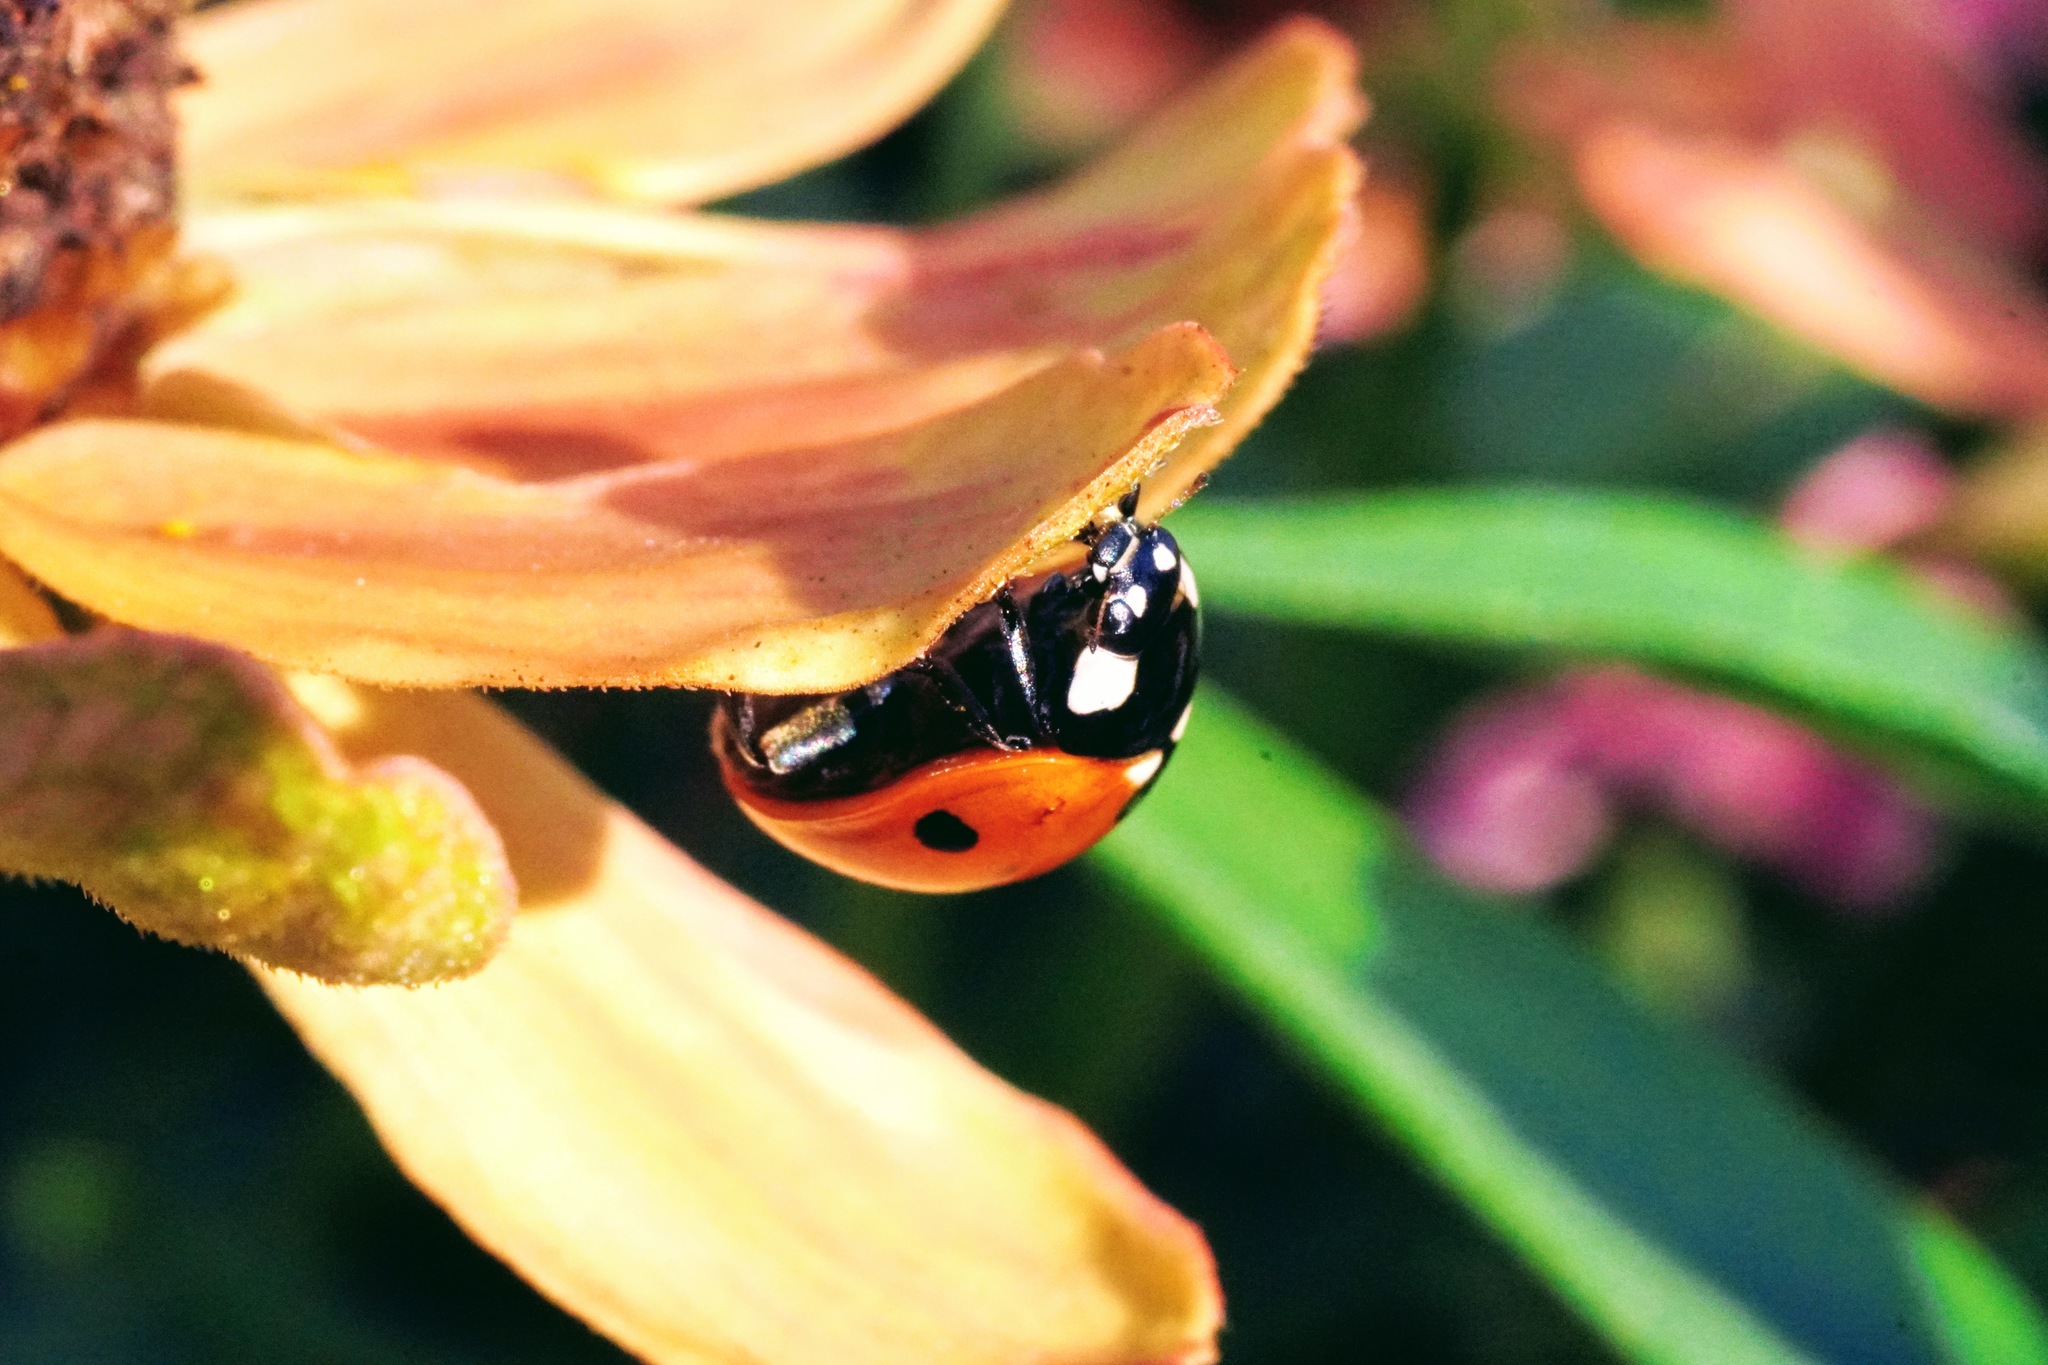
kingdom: Animalia
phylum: Arthropoda
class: Insecta
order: Coleoptera
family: Coccinellidae
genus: Coccinella
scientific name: Coccinella septempunctata
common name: Sevenspotted lady beetle
